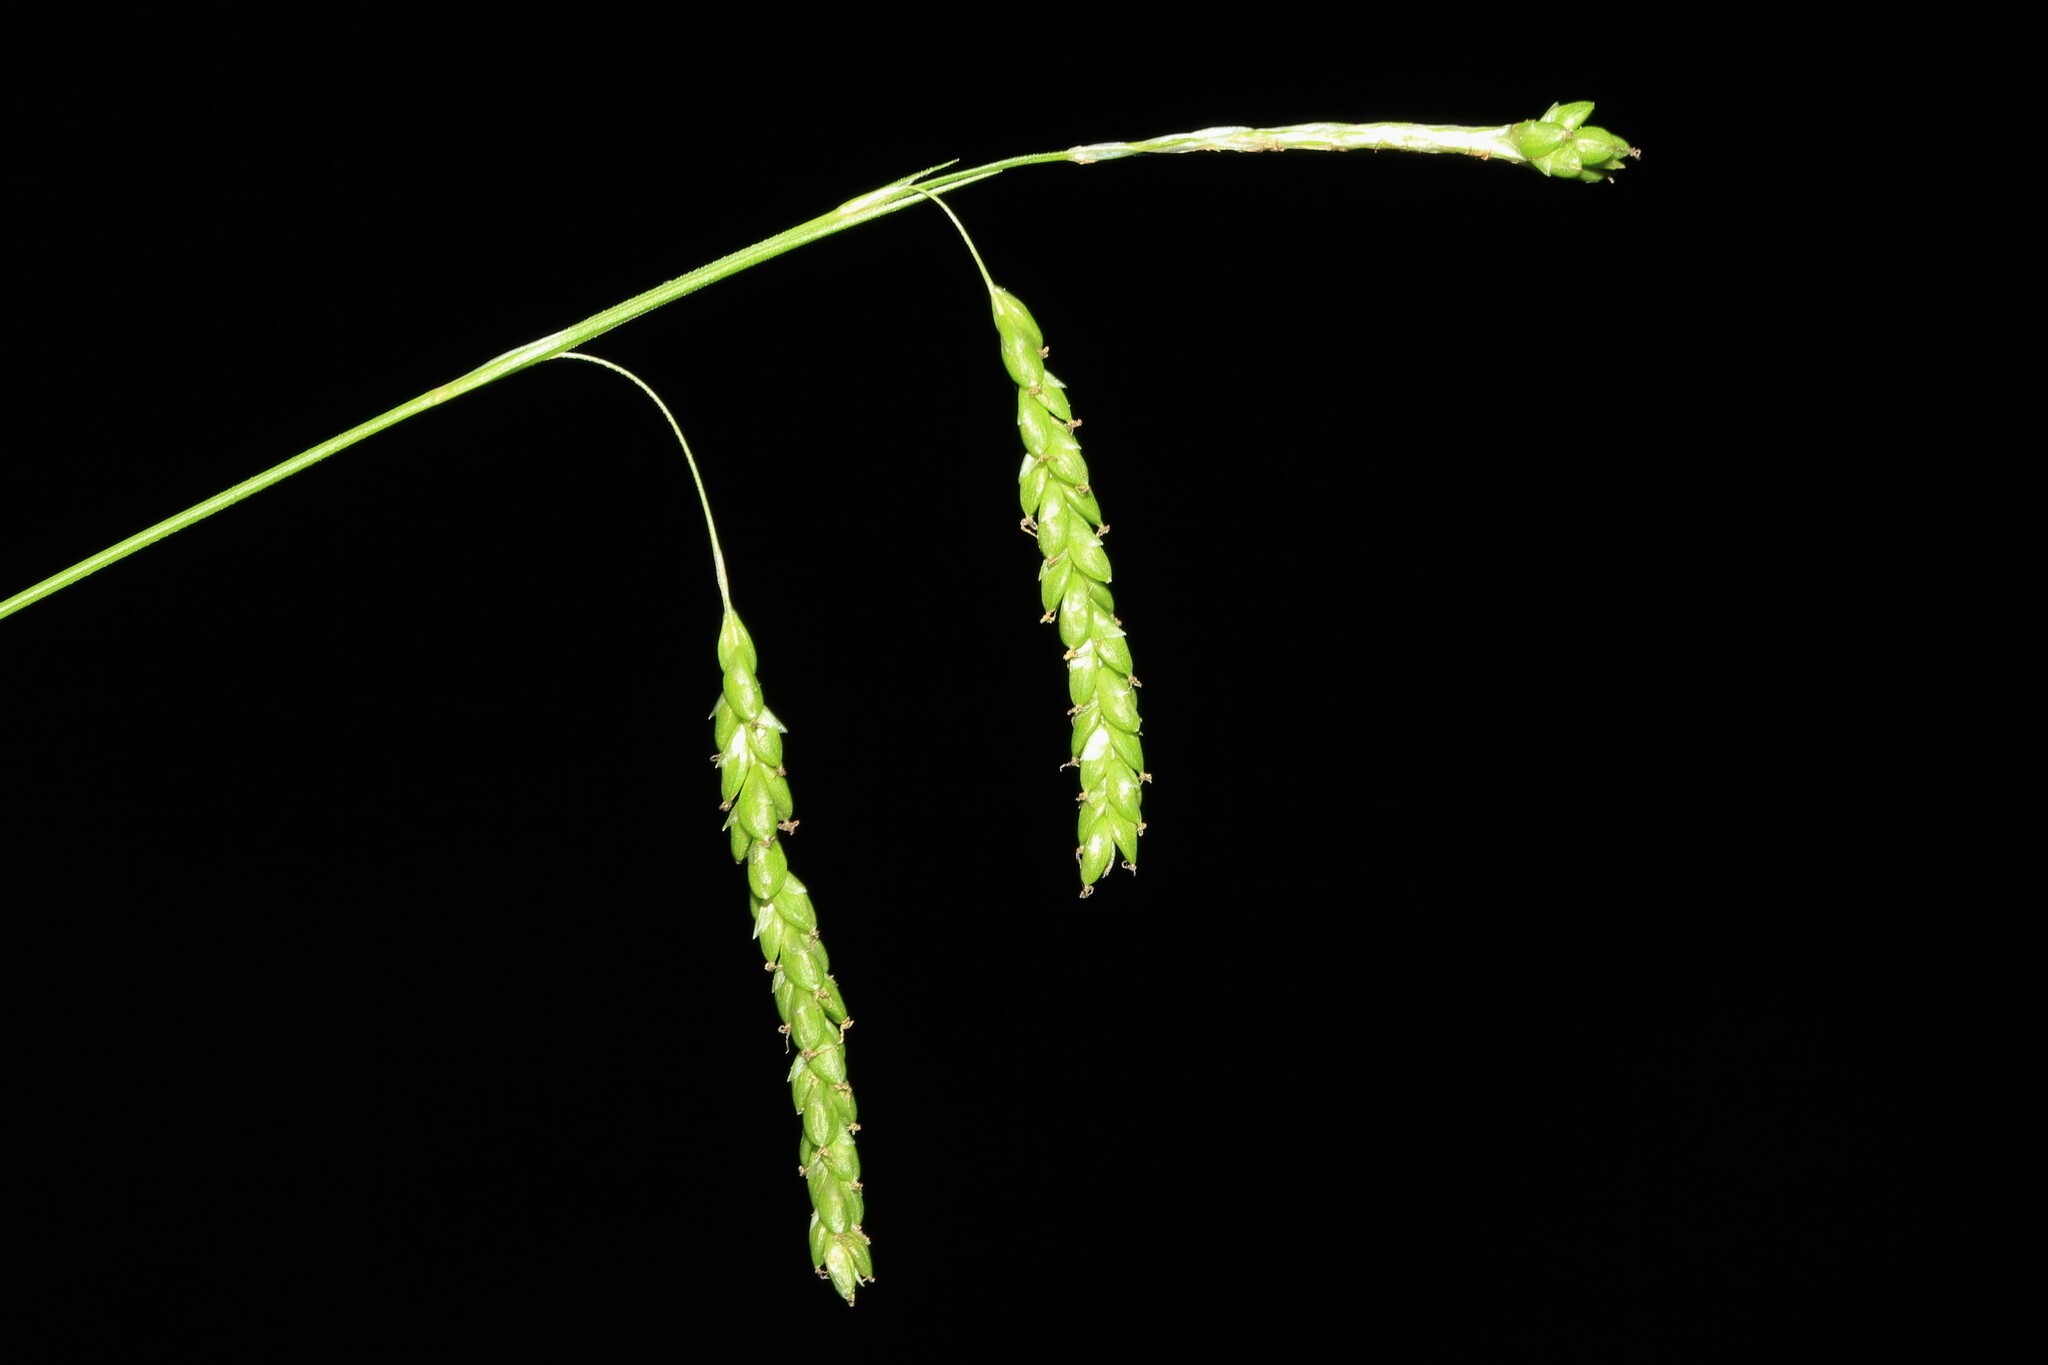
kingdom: Plantae
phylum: Tracheophyta
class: Liliopsida
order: Poales
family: Cyperaceae
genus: Carex
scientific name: Carex gracillima
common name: Graceful sedge
